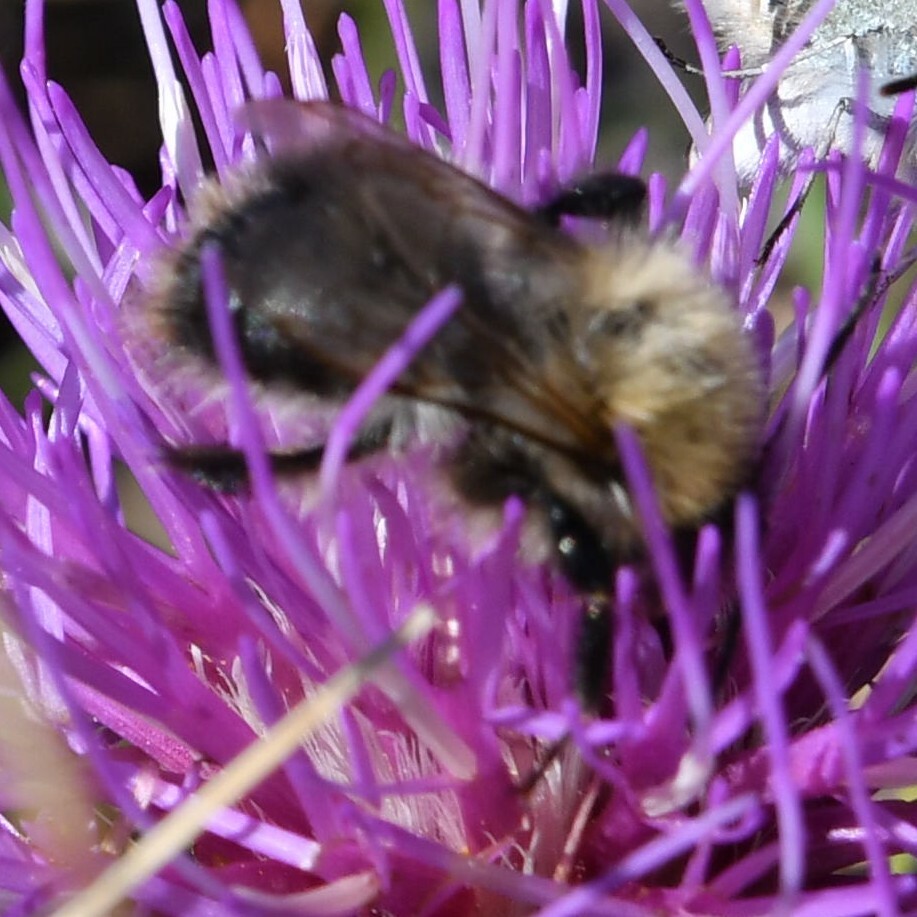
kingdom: Animalia
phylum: Arthropoda
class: Insecta
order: Hymenoptera
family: Apidae
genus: Bombus
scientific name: Bombus pascuorum
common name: Common carder bee
